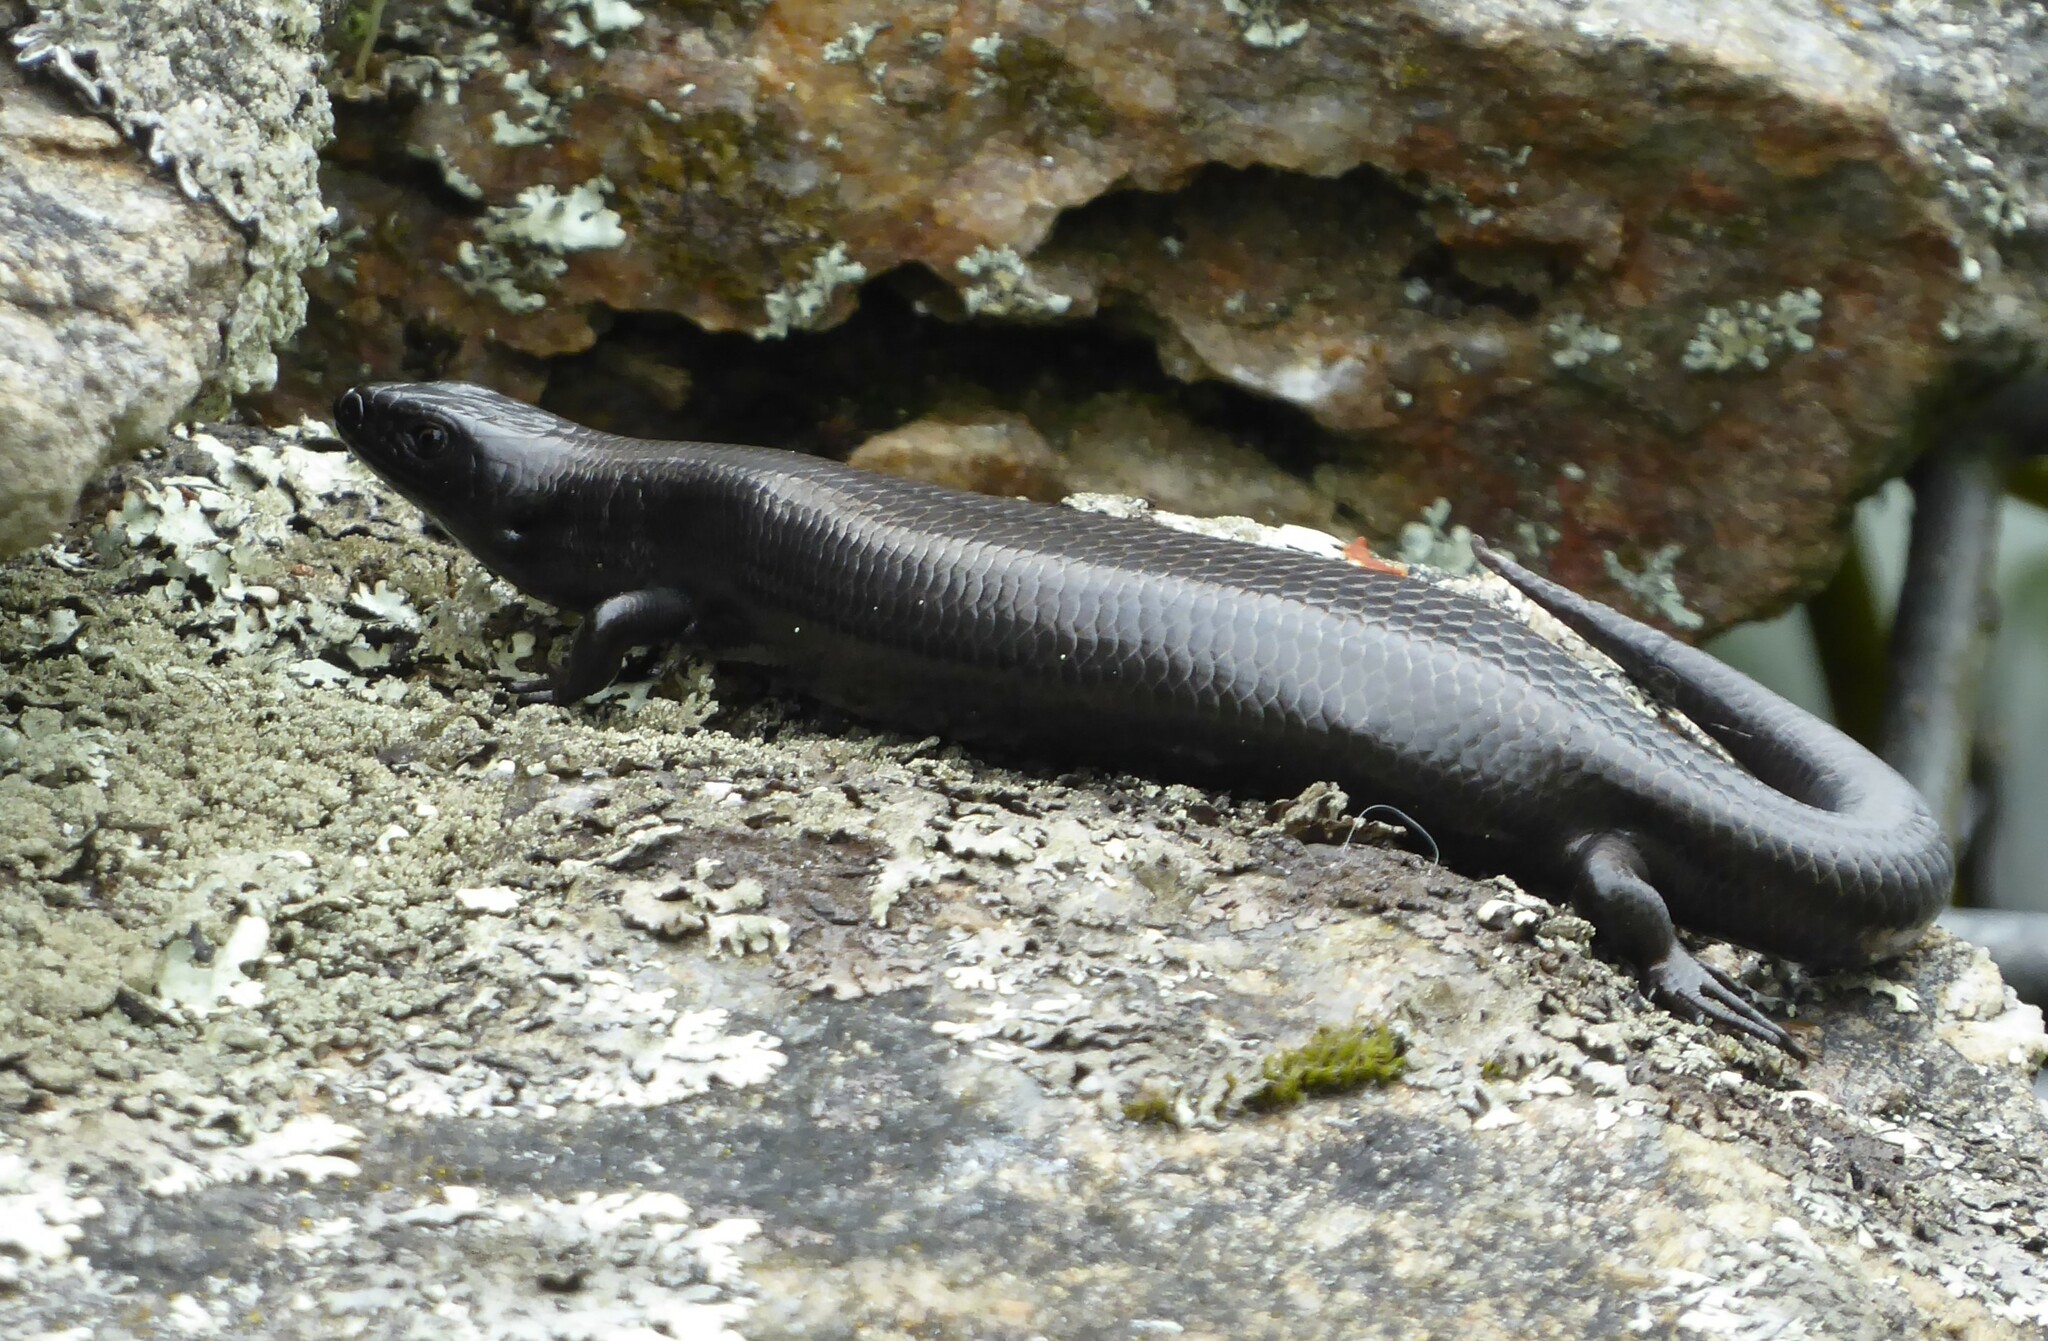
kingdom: Animalia
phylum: Chordata
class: Squamata
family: Scincidae
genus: Oligosoma
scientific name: Oligosoma polychroma
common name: Common new zealand skink
